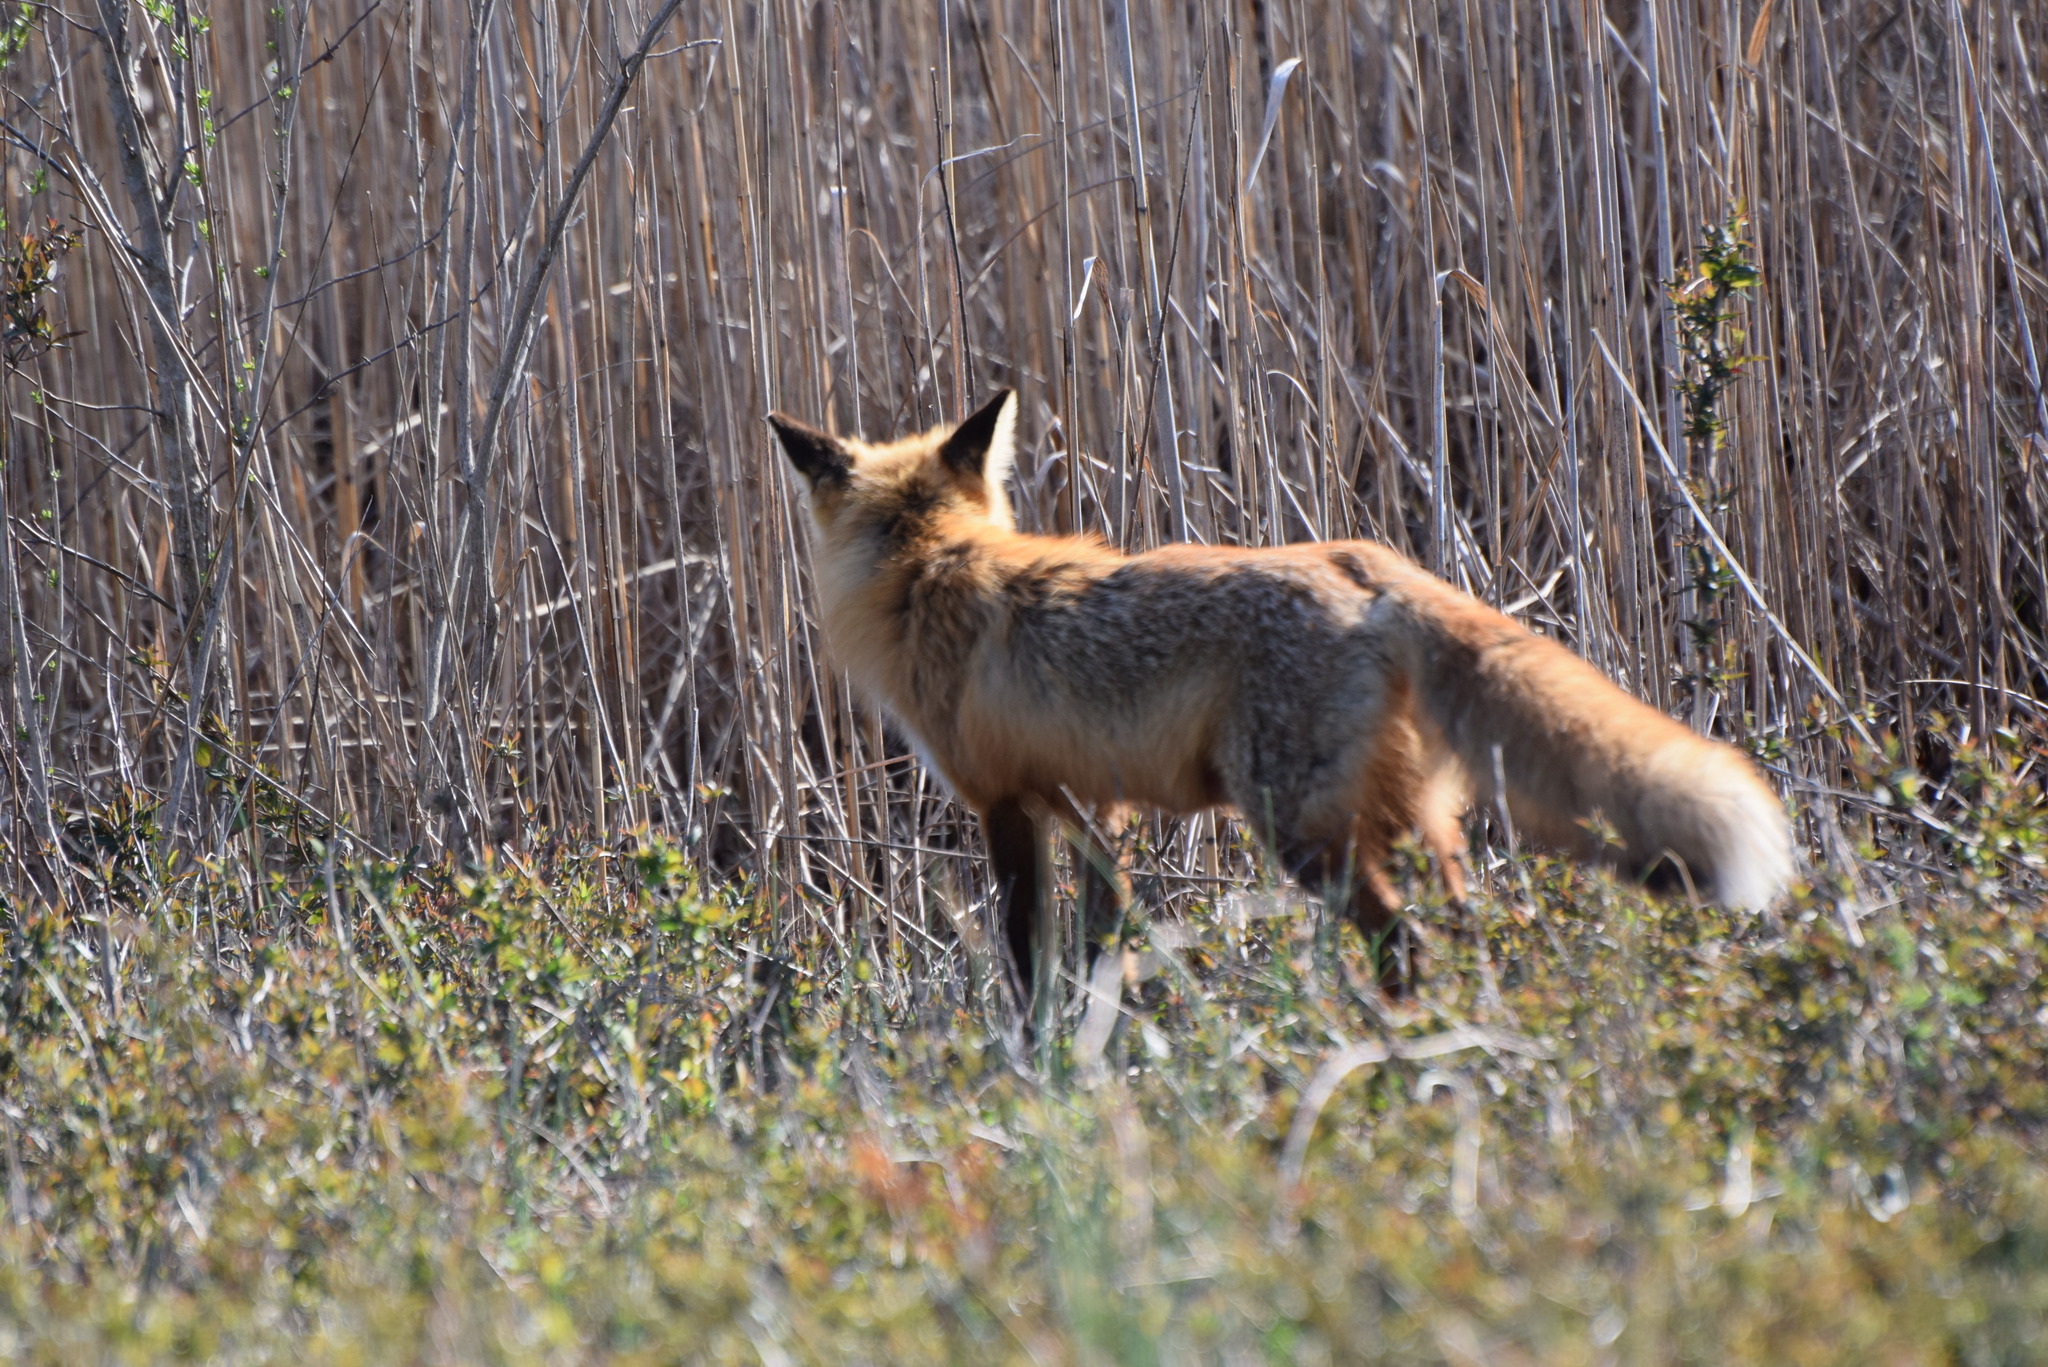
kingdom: Animalia
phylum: Chordata
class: Mammalia
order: Carnivora
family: Canidae
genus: Vulpes
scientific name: Vulpes vulpes
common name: Red fox
